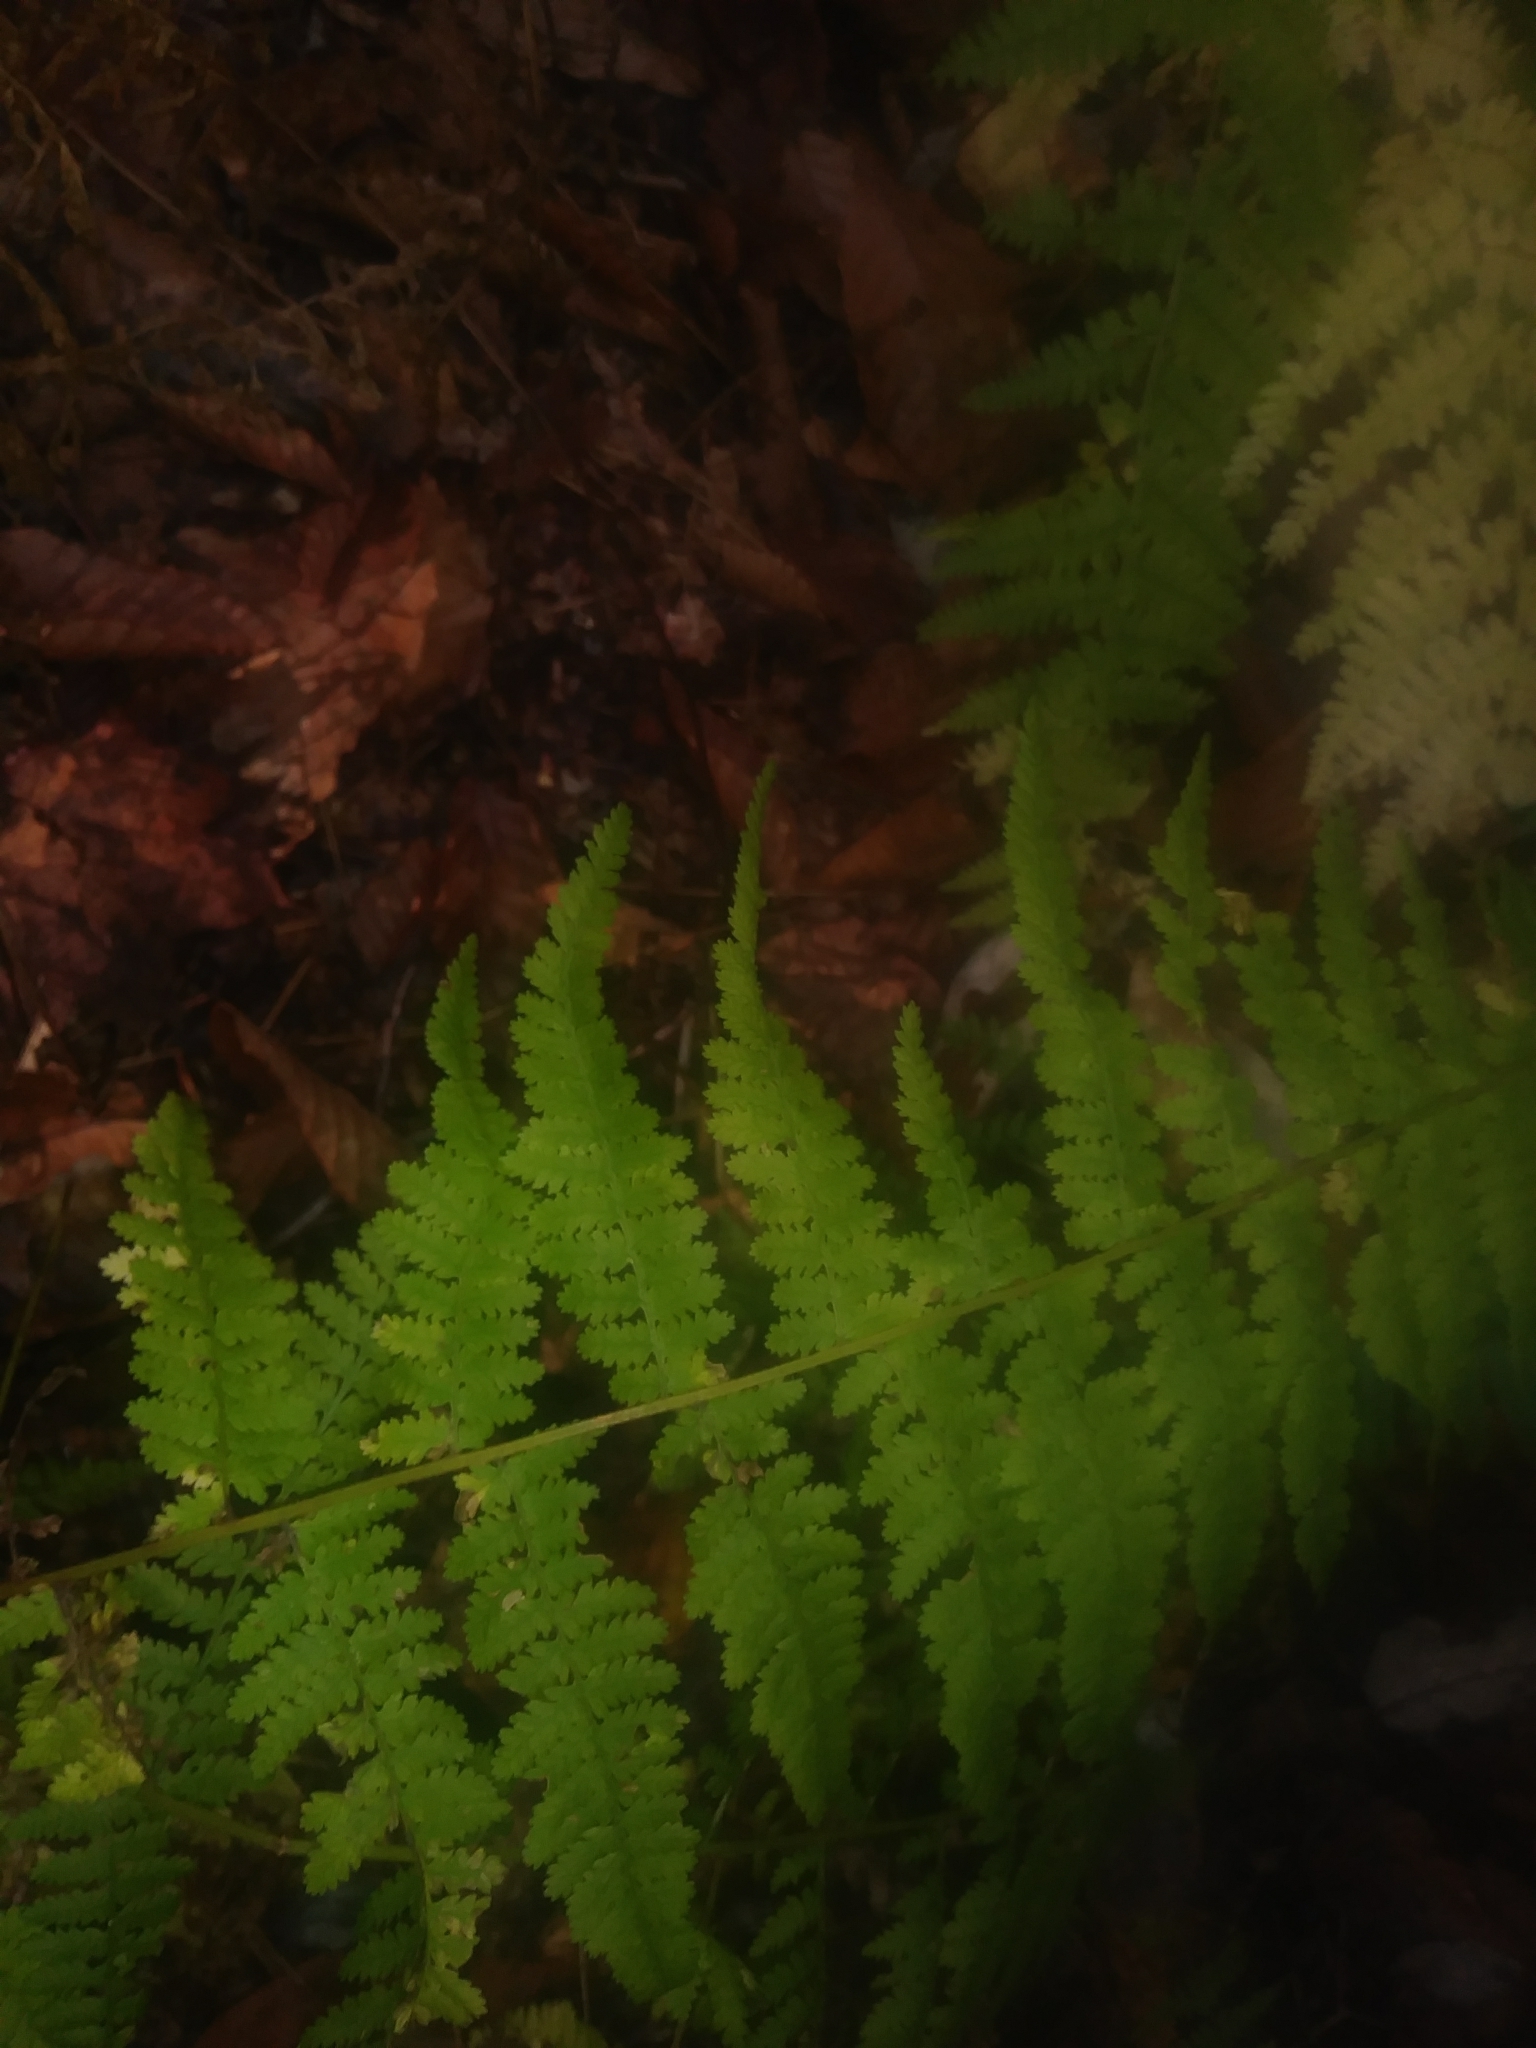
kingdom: Plantae
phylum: Tracheophyta
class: Polypodiopsida
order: Polypodiales
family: Dennstaedtiaceae
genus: Sitobolium
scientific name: Sitobolium punctilobum
